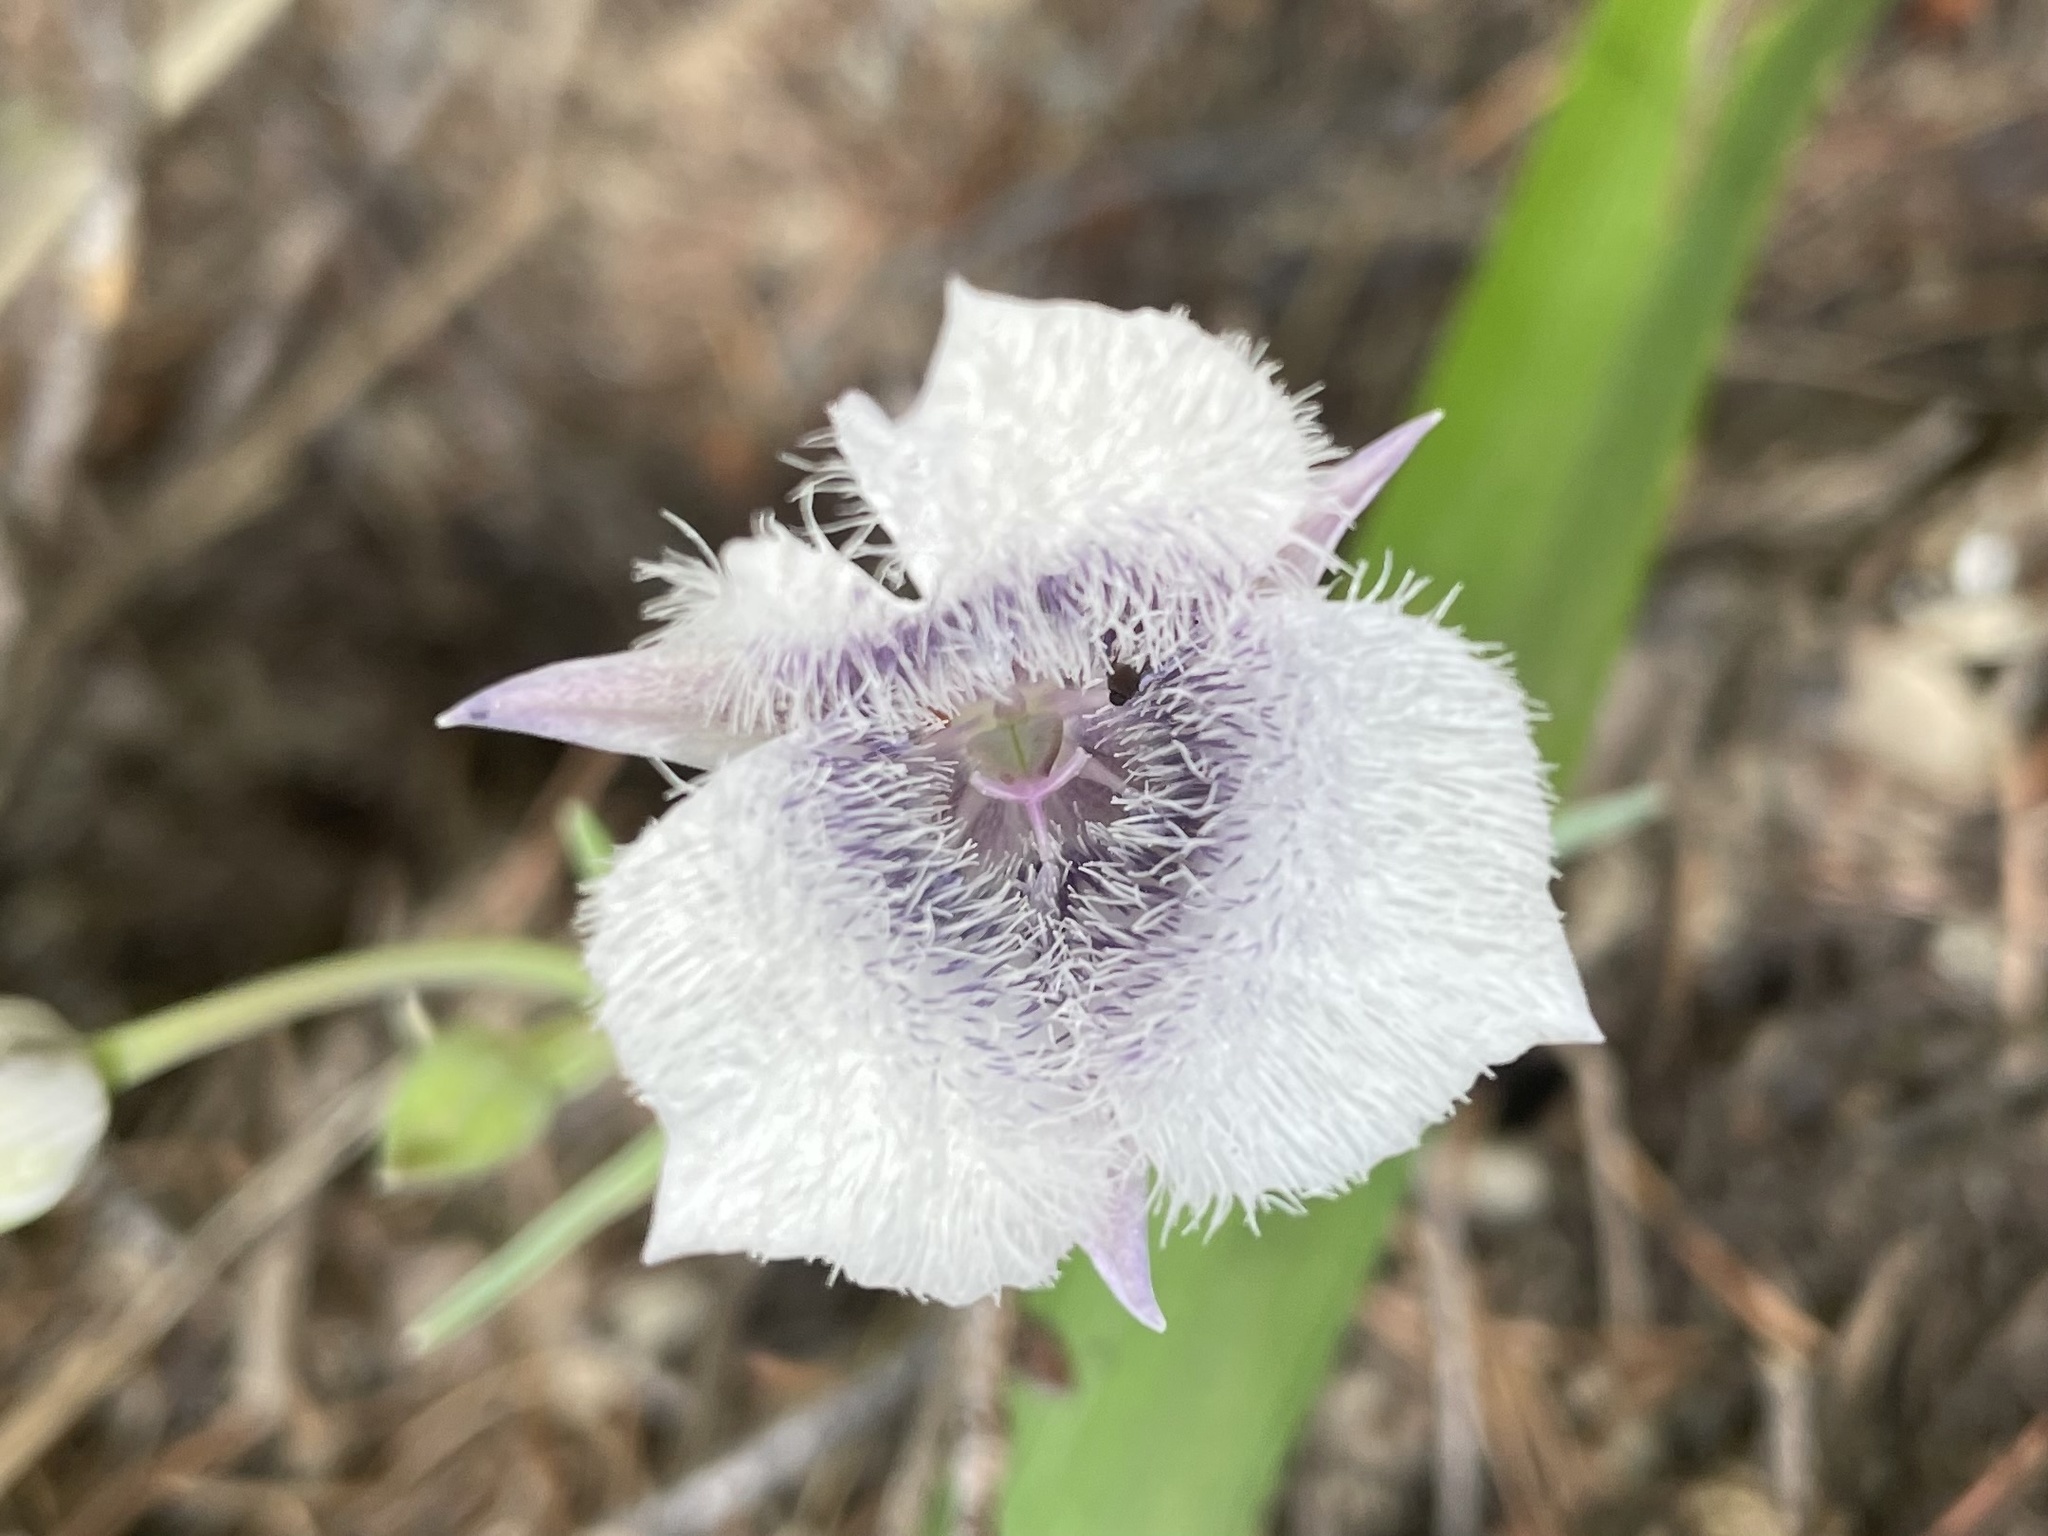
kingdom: Plantae
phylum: Tracheophyta
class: Liliopsida
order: Liliales
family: Liliaceae
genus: Calochortus
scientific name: Calochortus tolmiei
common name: Pussy-ears
